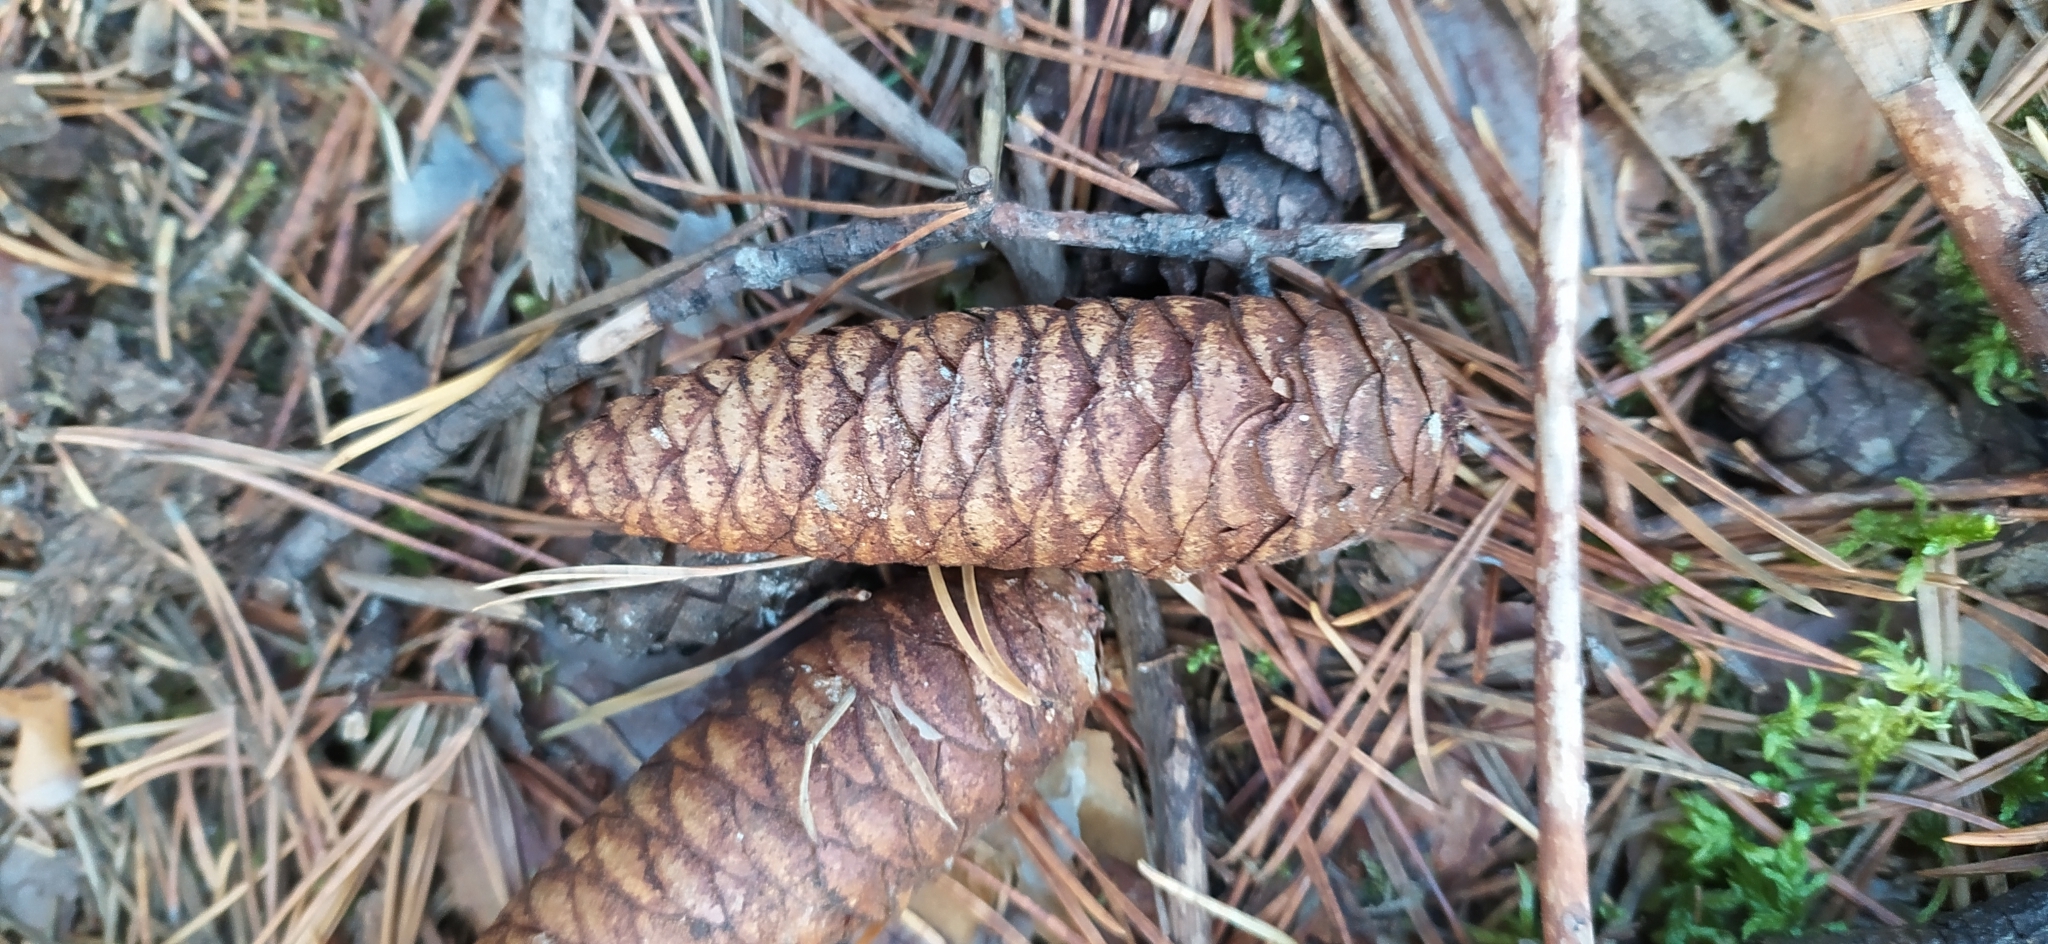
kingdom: Plantae
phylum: Tracheophyta
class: Pinopsida
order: Pinales
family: Pinaceae
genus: Picea
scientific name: Picea obovata
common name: Siberian spruce
